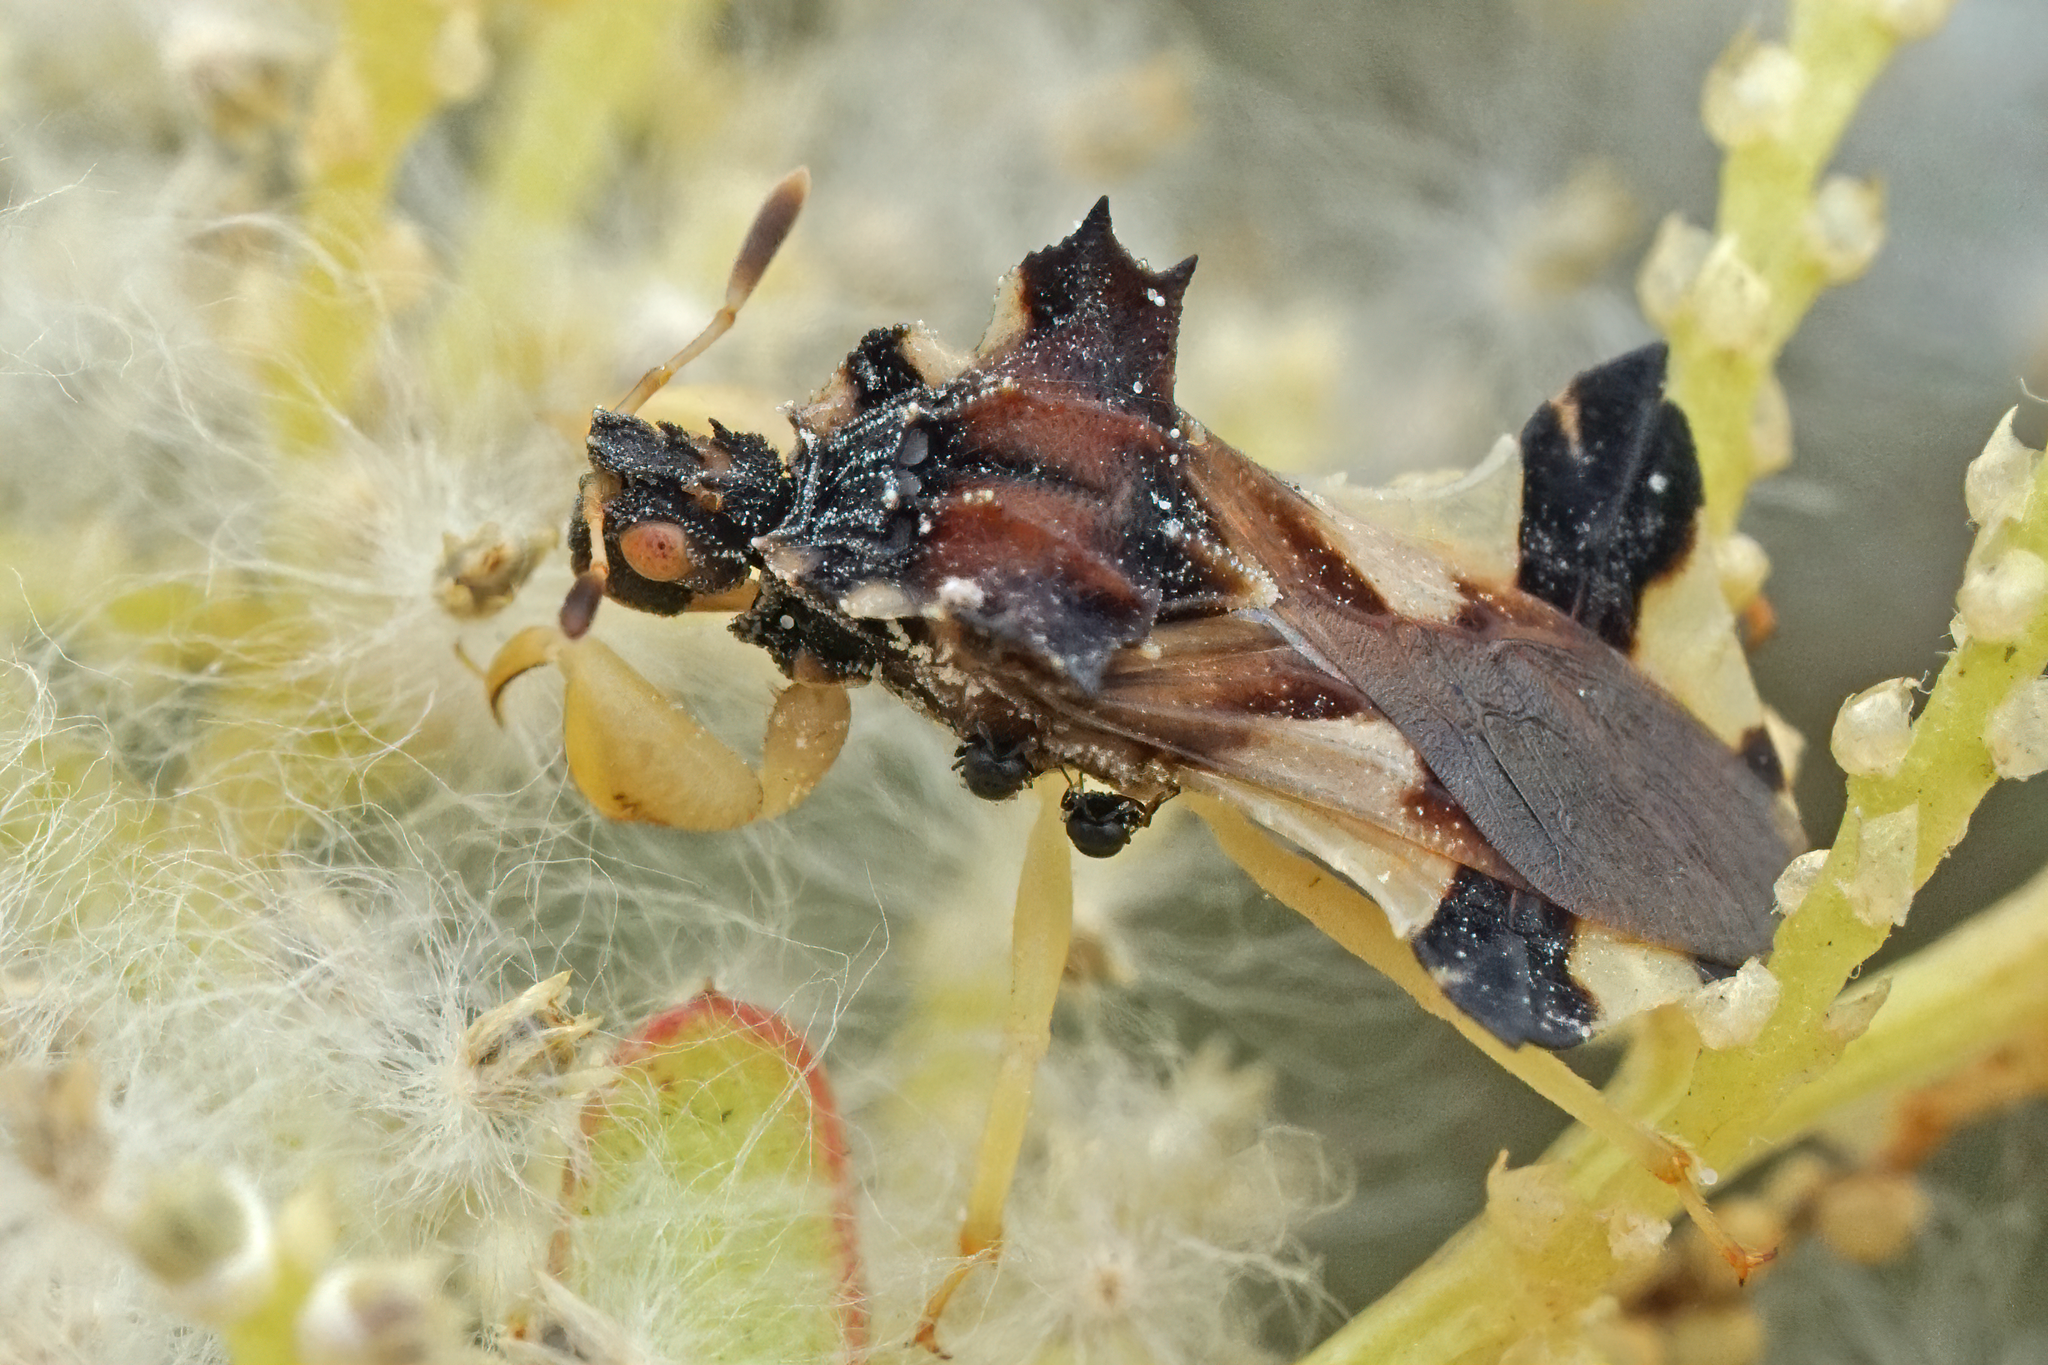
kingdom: Animalia
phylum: Arthropoda
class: Insecta
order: Hemiptera
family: Reduviidae
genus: Phymata
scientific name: Phymata
